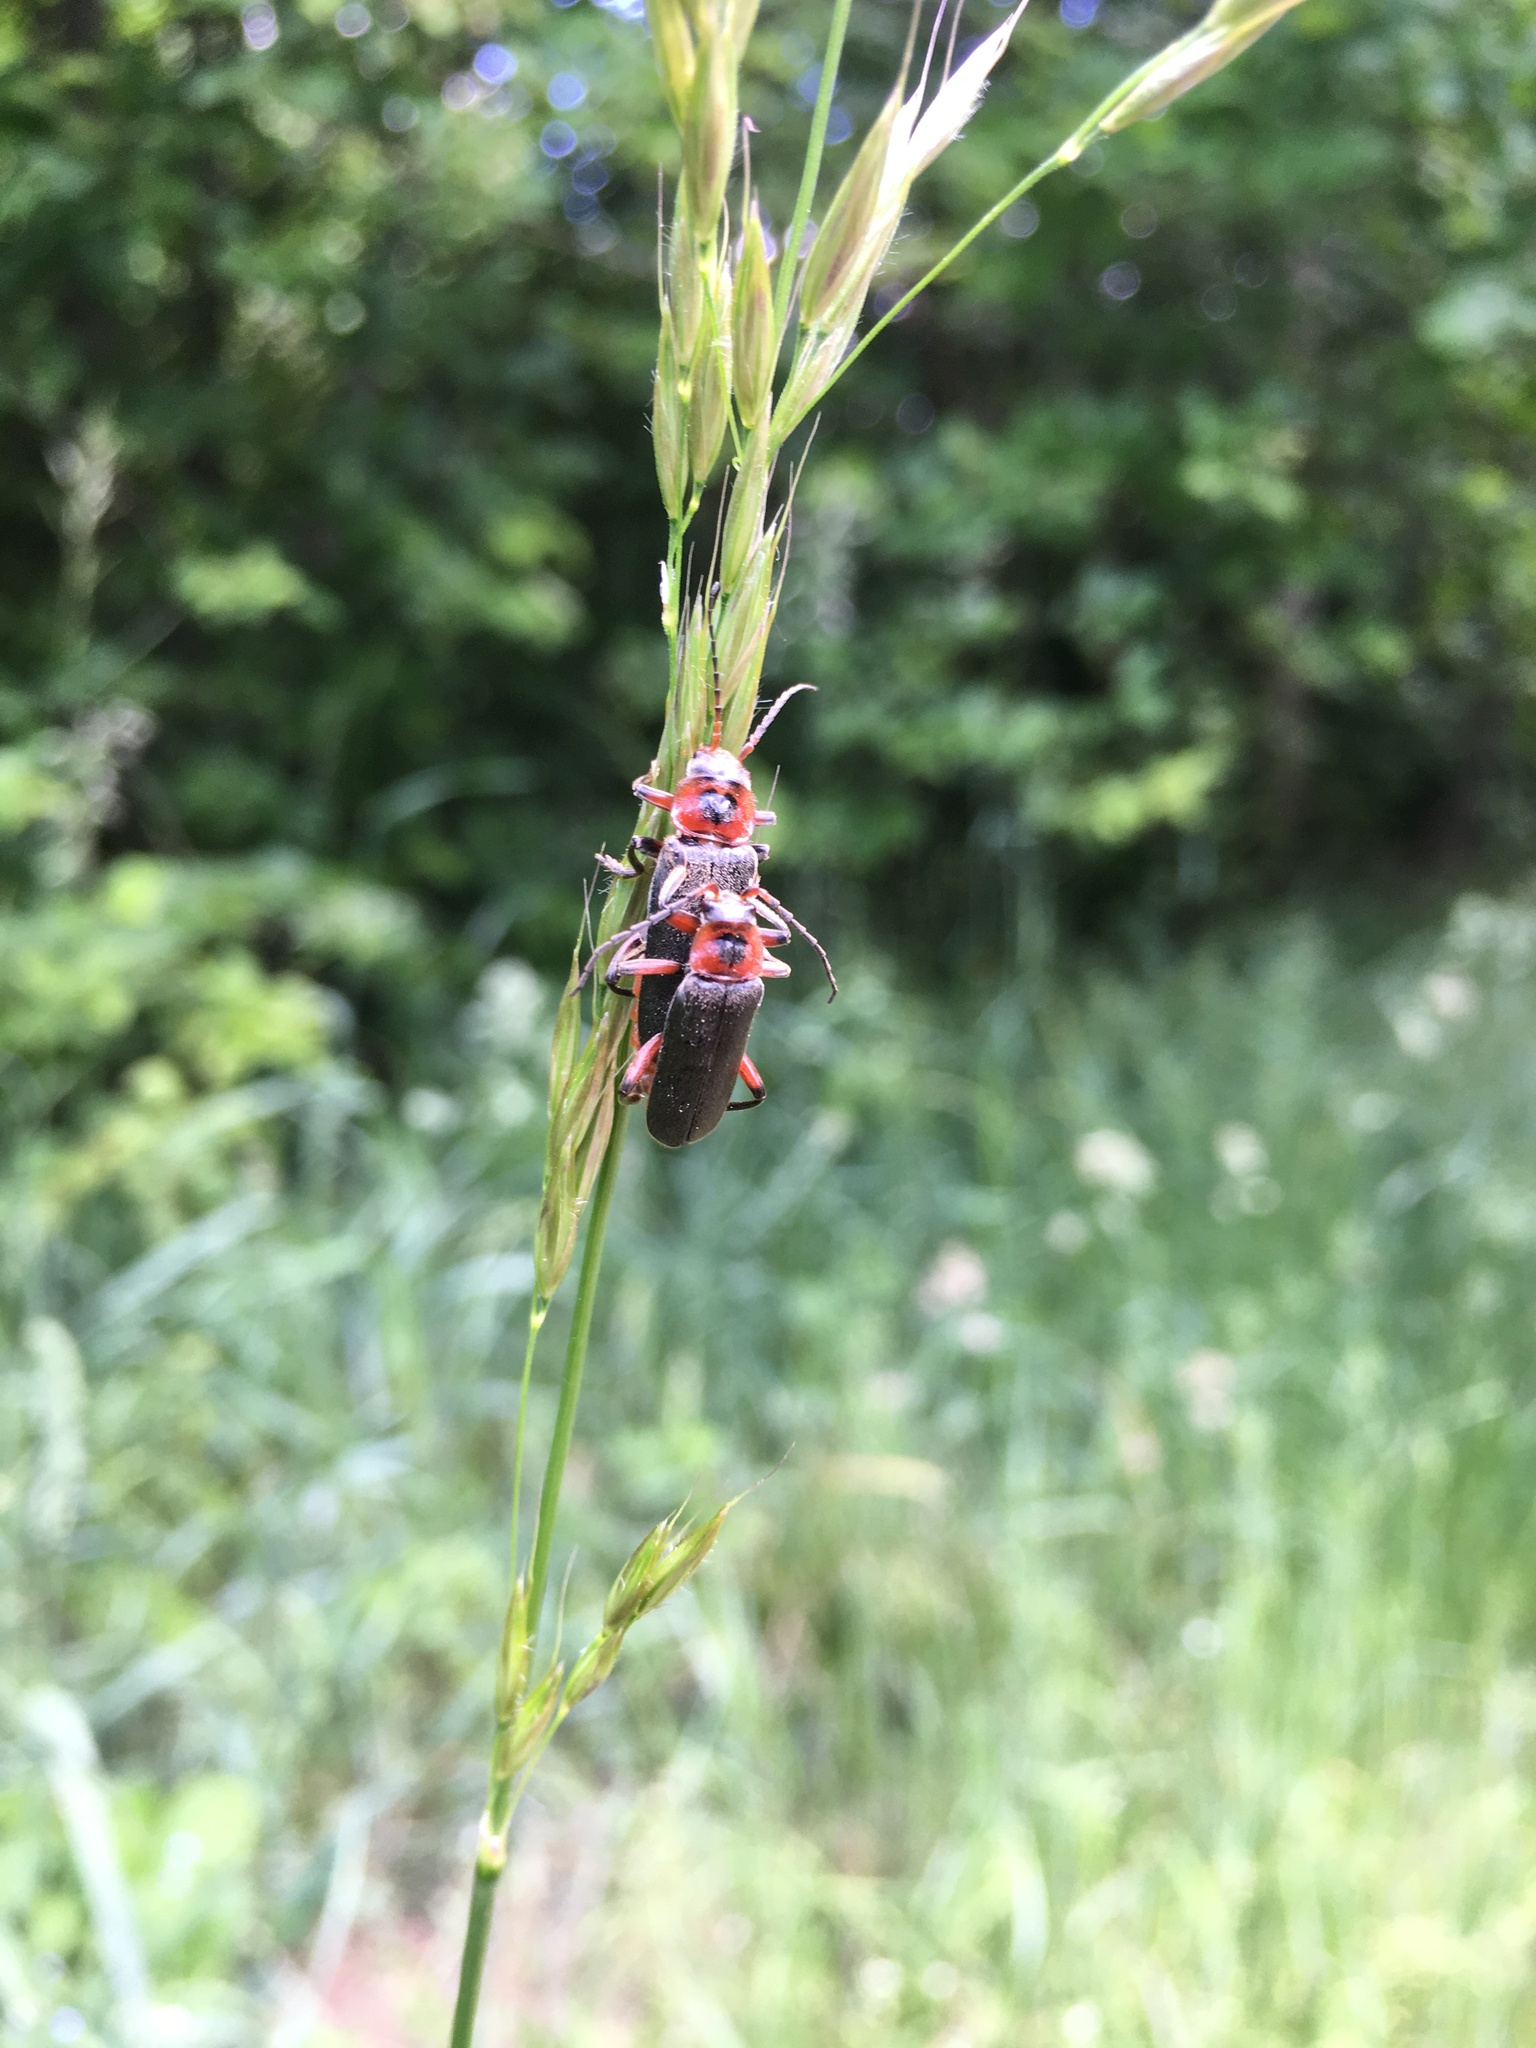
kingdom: Animalia
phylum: Arthropoda
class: Insecta
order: Coleoptera
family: Cantharidae
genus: Cantharis
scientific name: Cantharis rustica
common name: Soldier beetle
